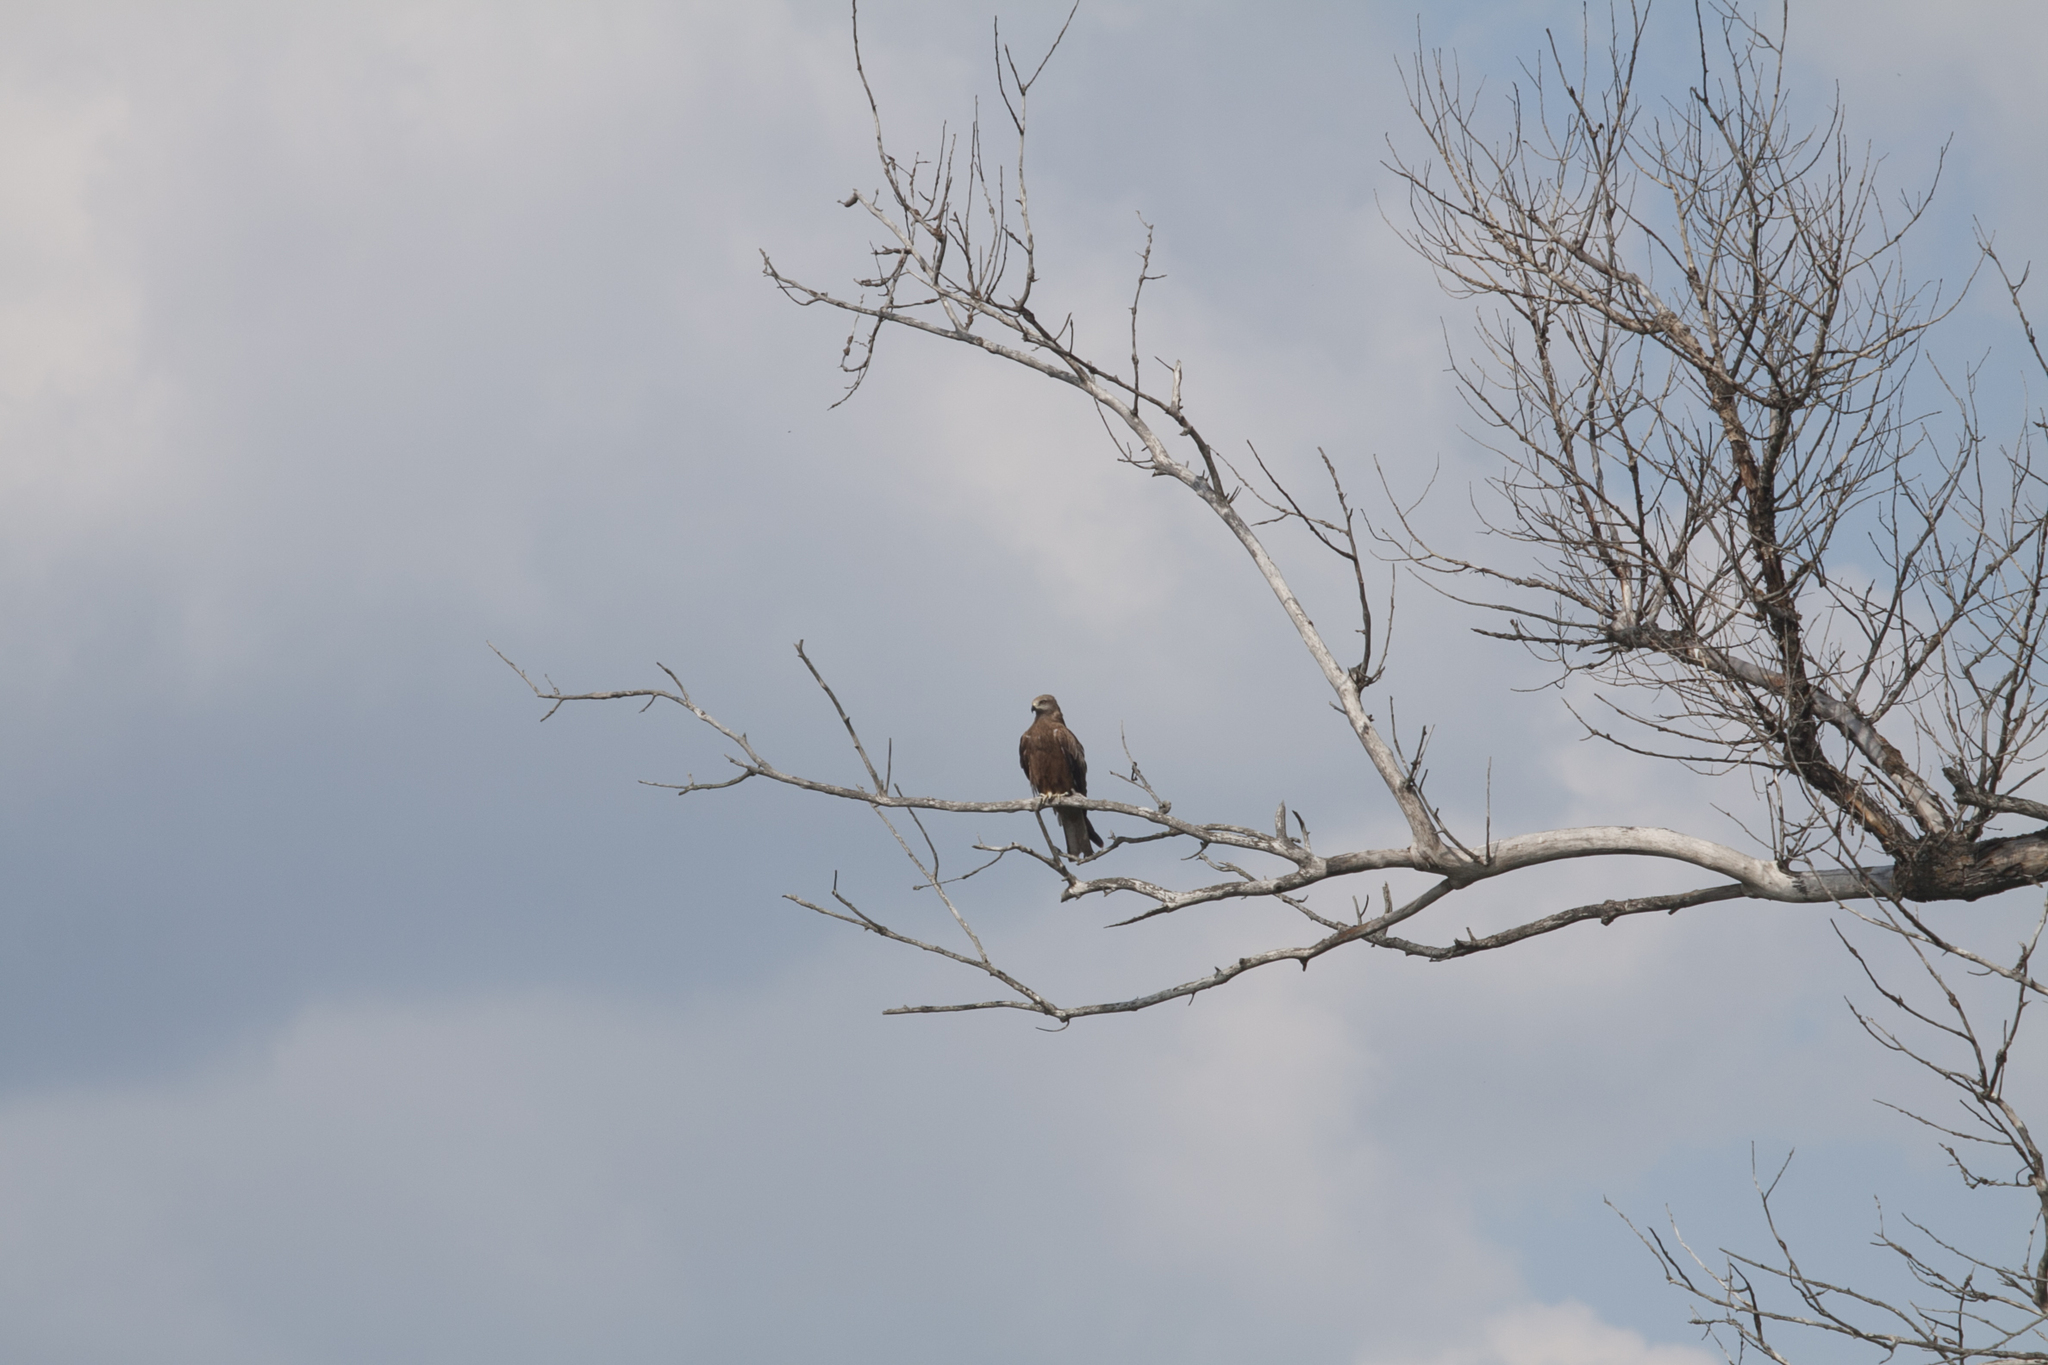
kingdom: Animalia
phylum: Chordata
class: Aves
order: Accipitriformes
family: Accipitridae
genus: Milvus
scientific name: Milvus migrans
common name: Black kite
